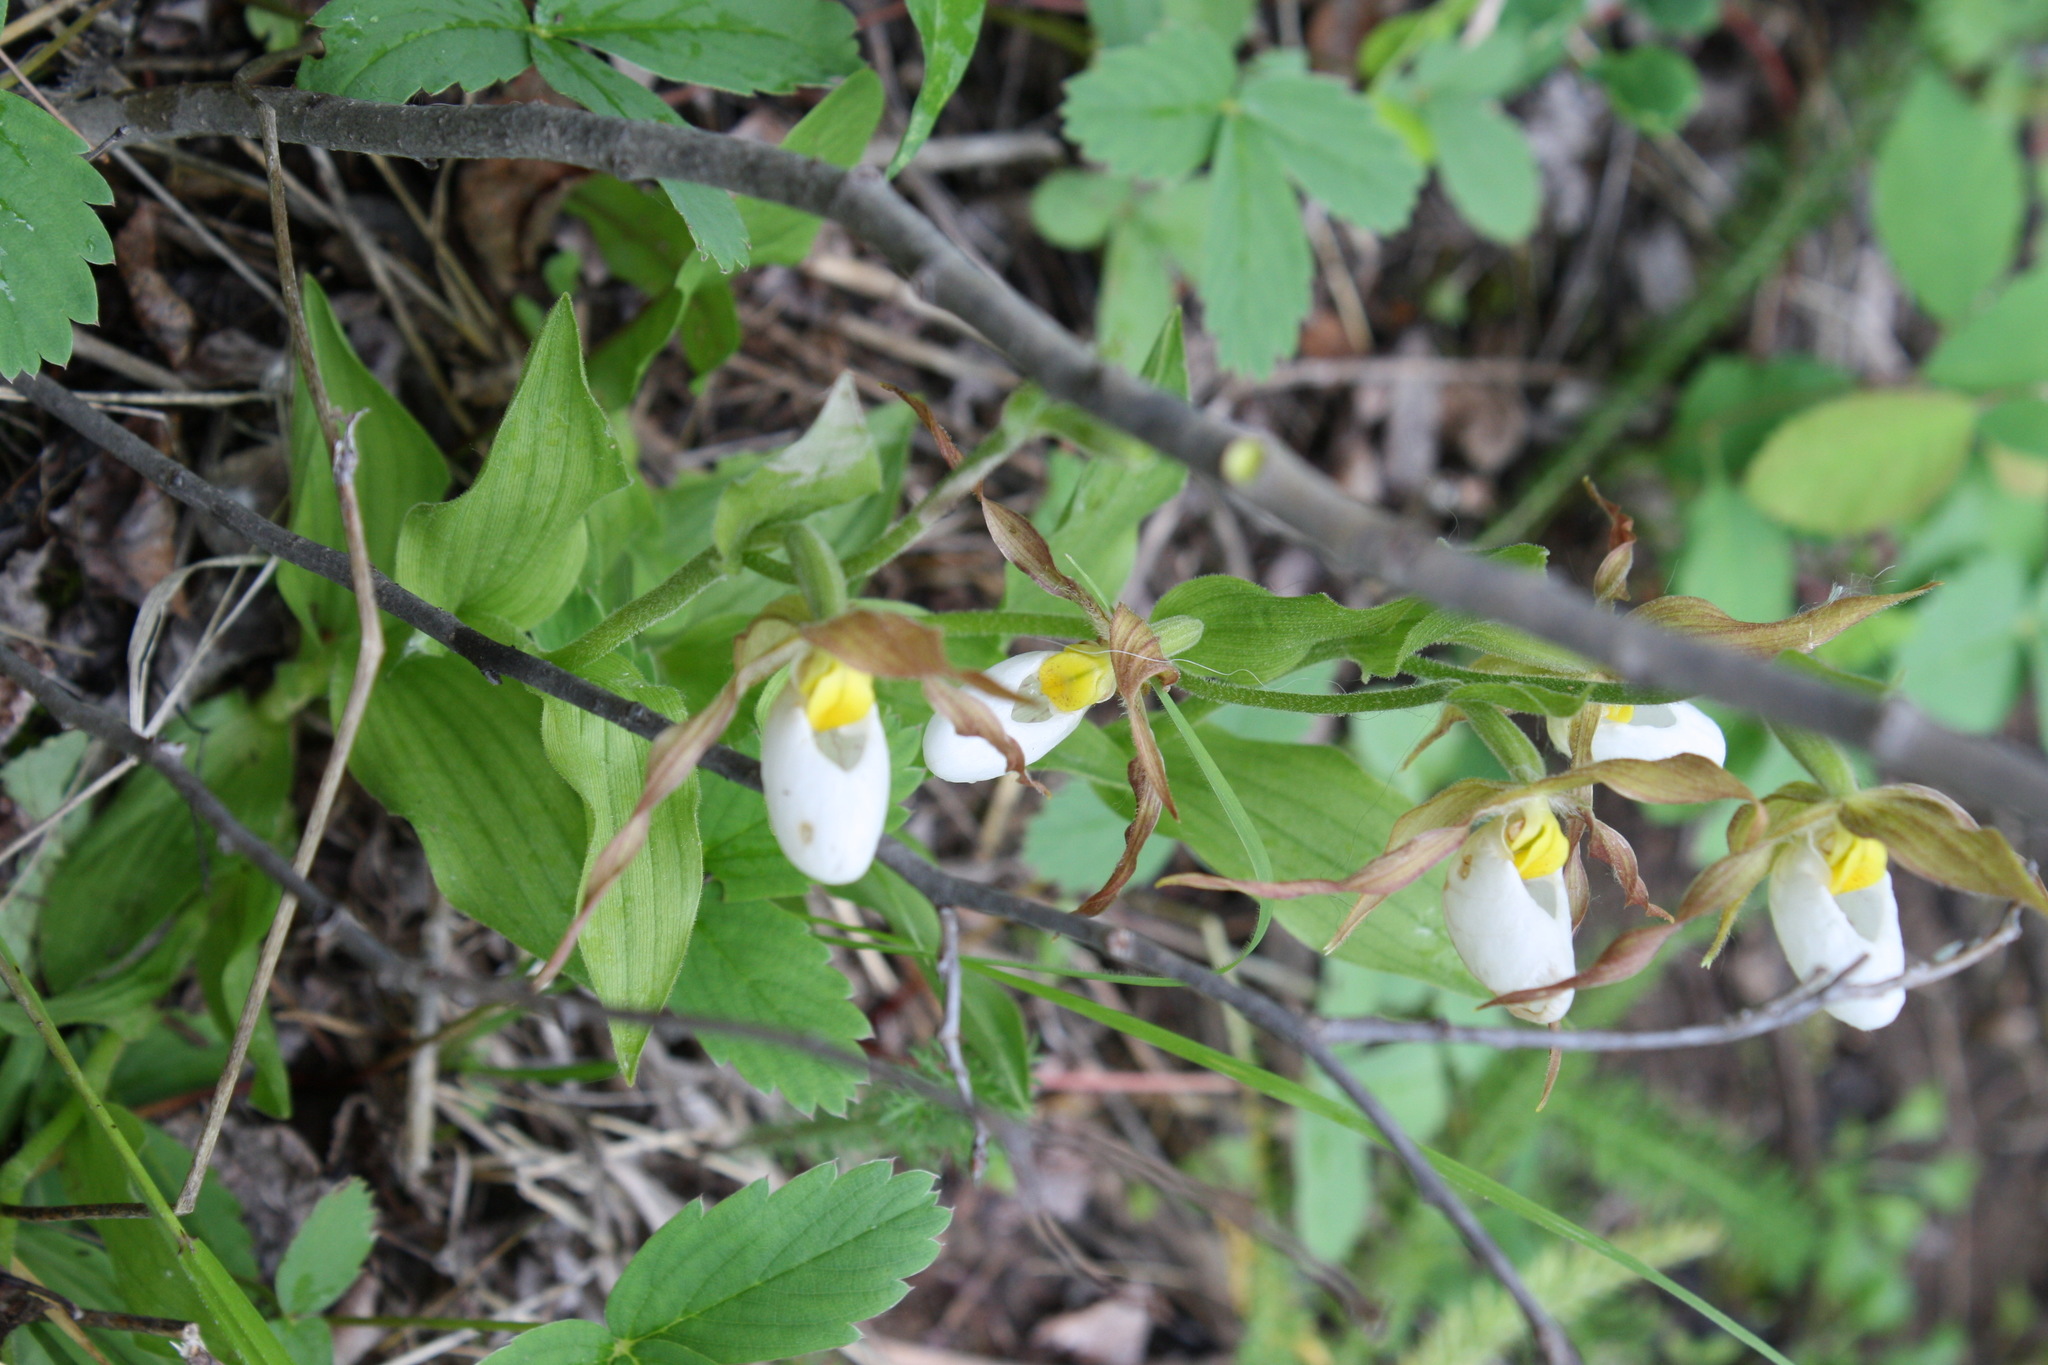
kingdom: Plantae
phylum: Tracheophyta
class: Liliopsida
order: Asparagales
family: Orchidaceae
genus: Cypripedium
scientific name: Cypripedium montanum
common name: Mountain lady's-slipper
